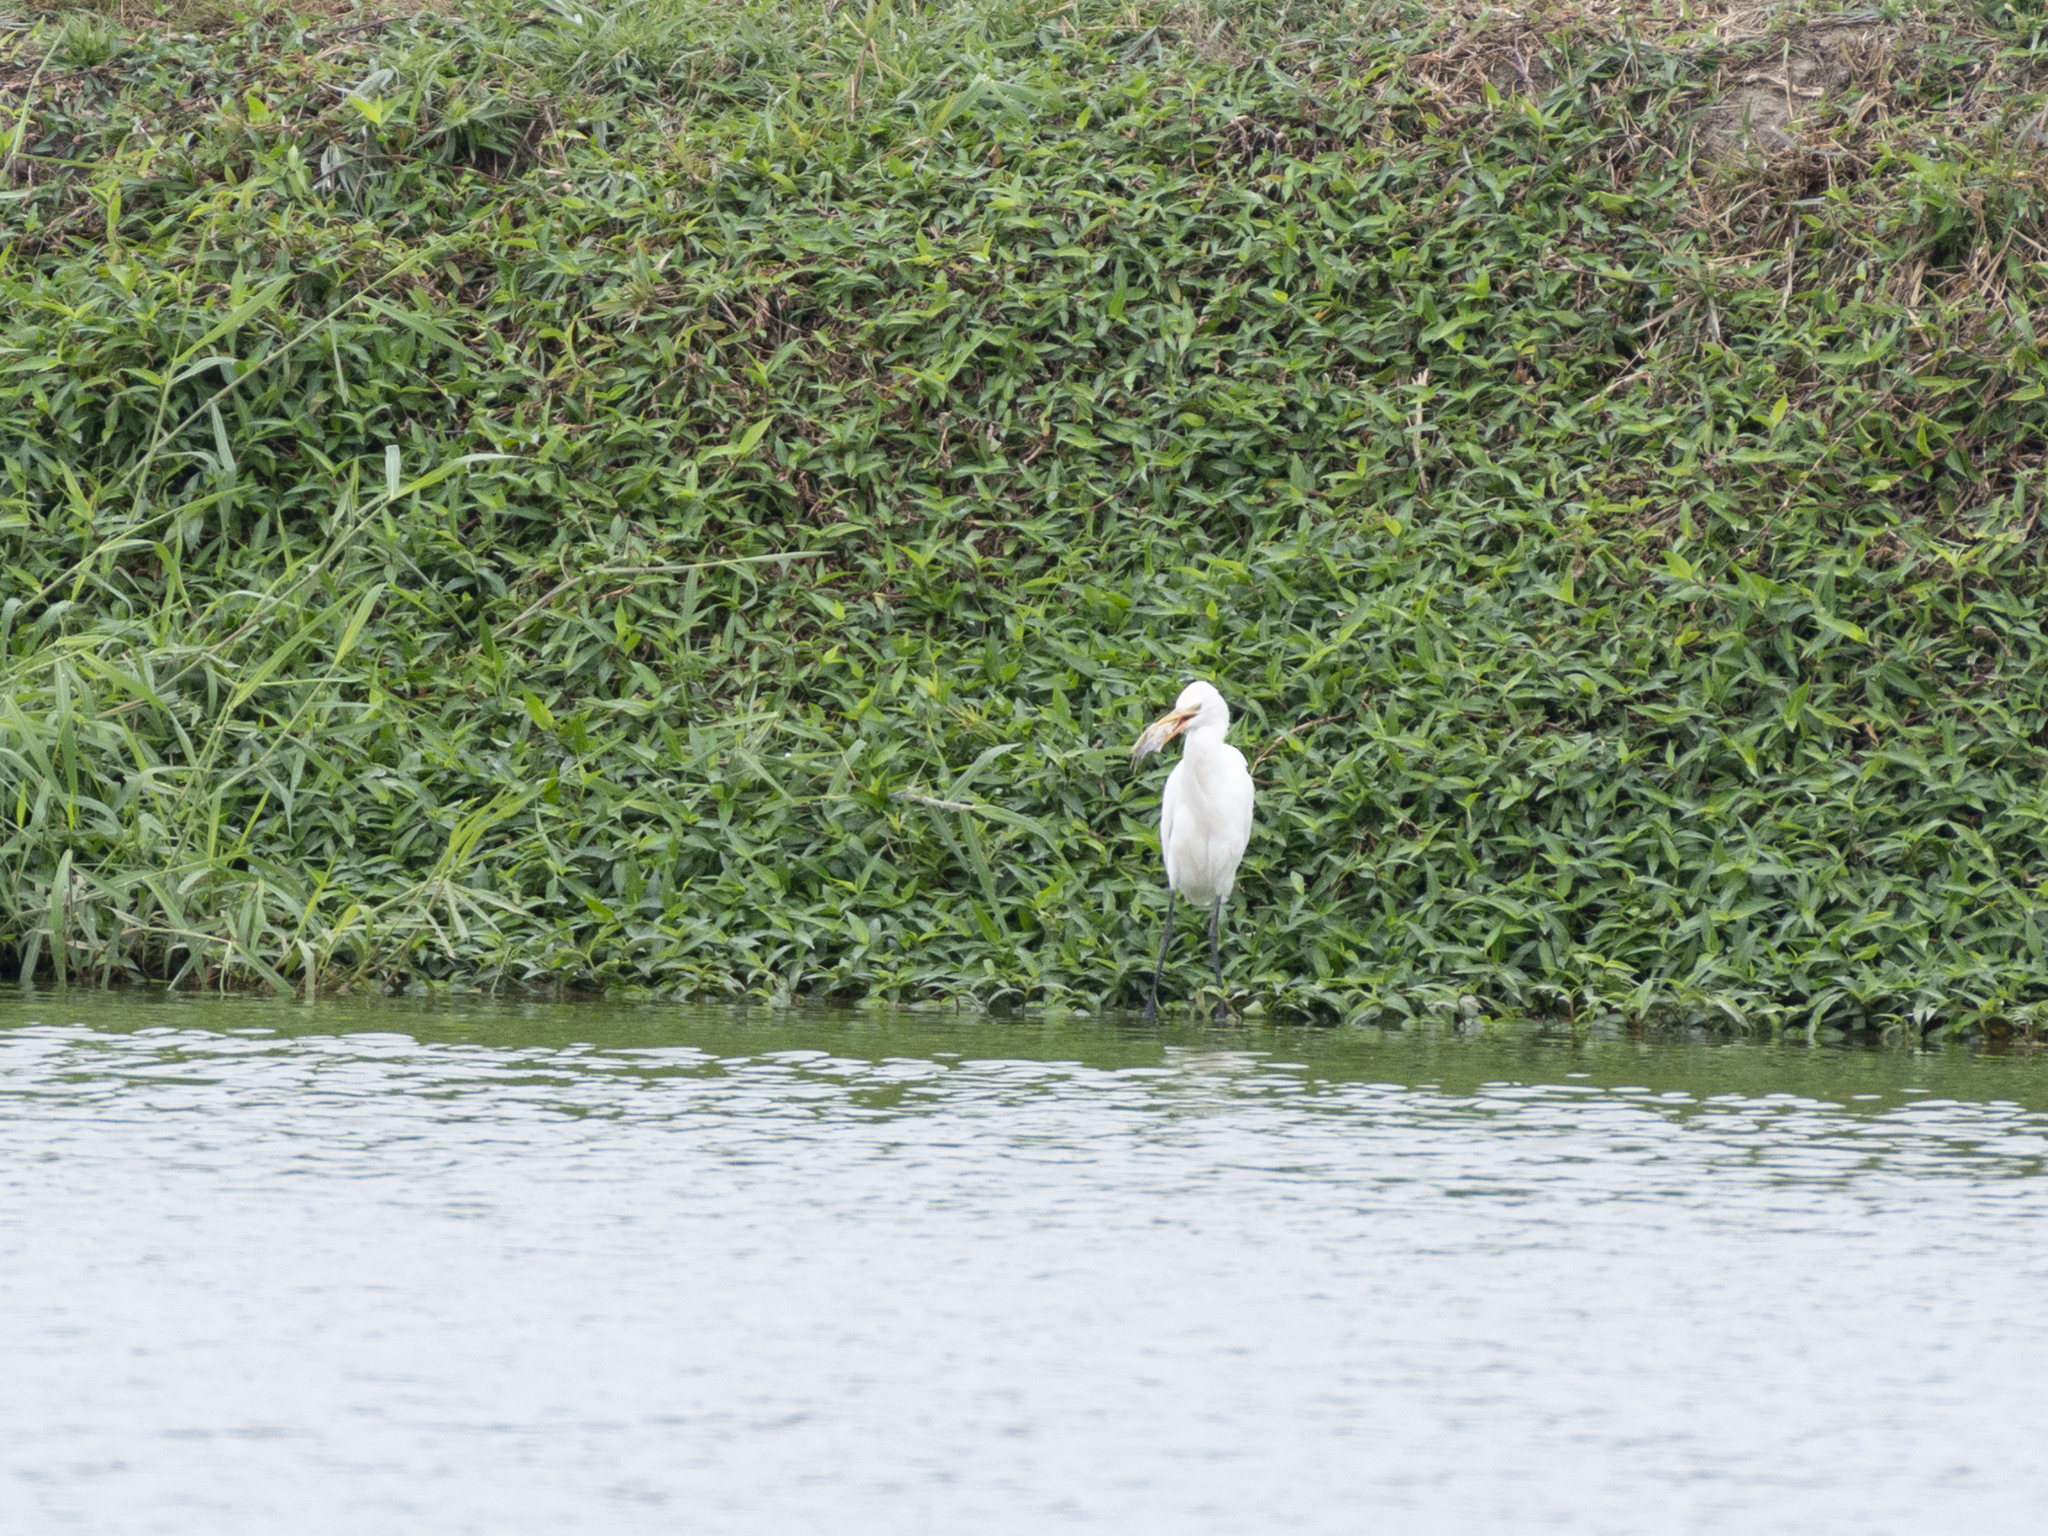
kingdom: Animalia
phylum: Chordata
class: Aves
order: Pelecaniformes
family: Ardeidae
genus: Bubulcus
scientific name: Bubulcus coromandus
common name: Eastern cattle egret
